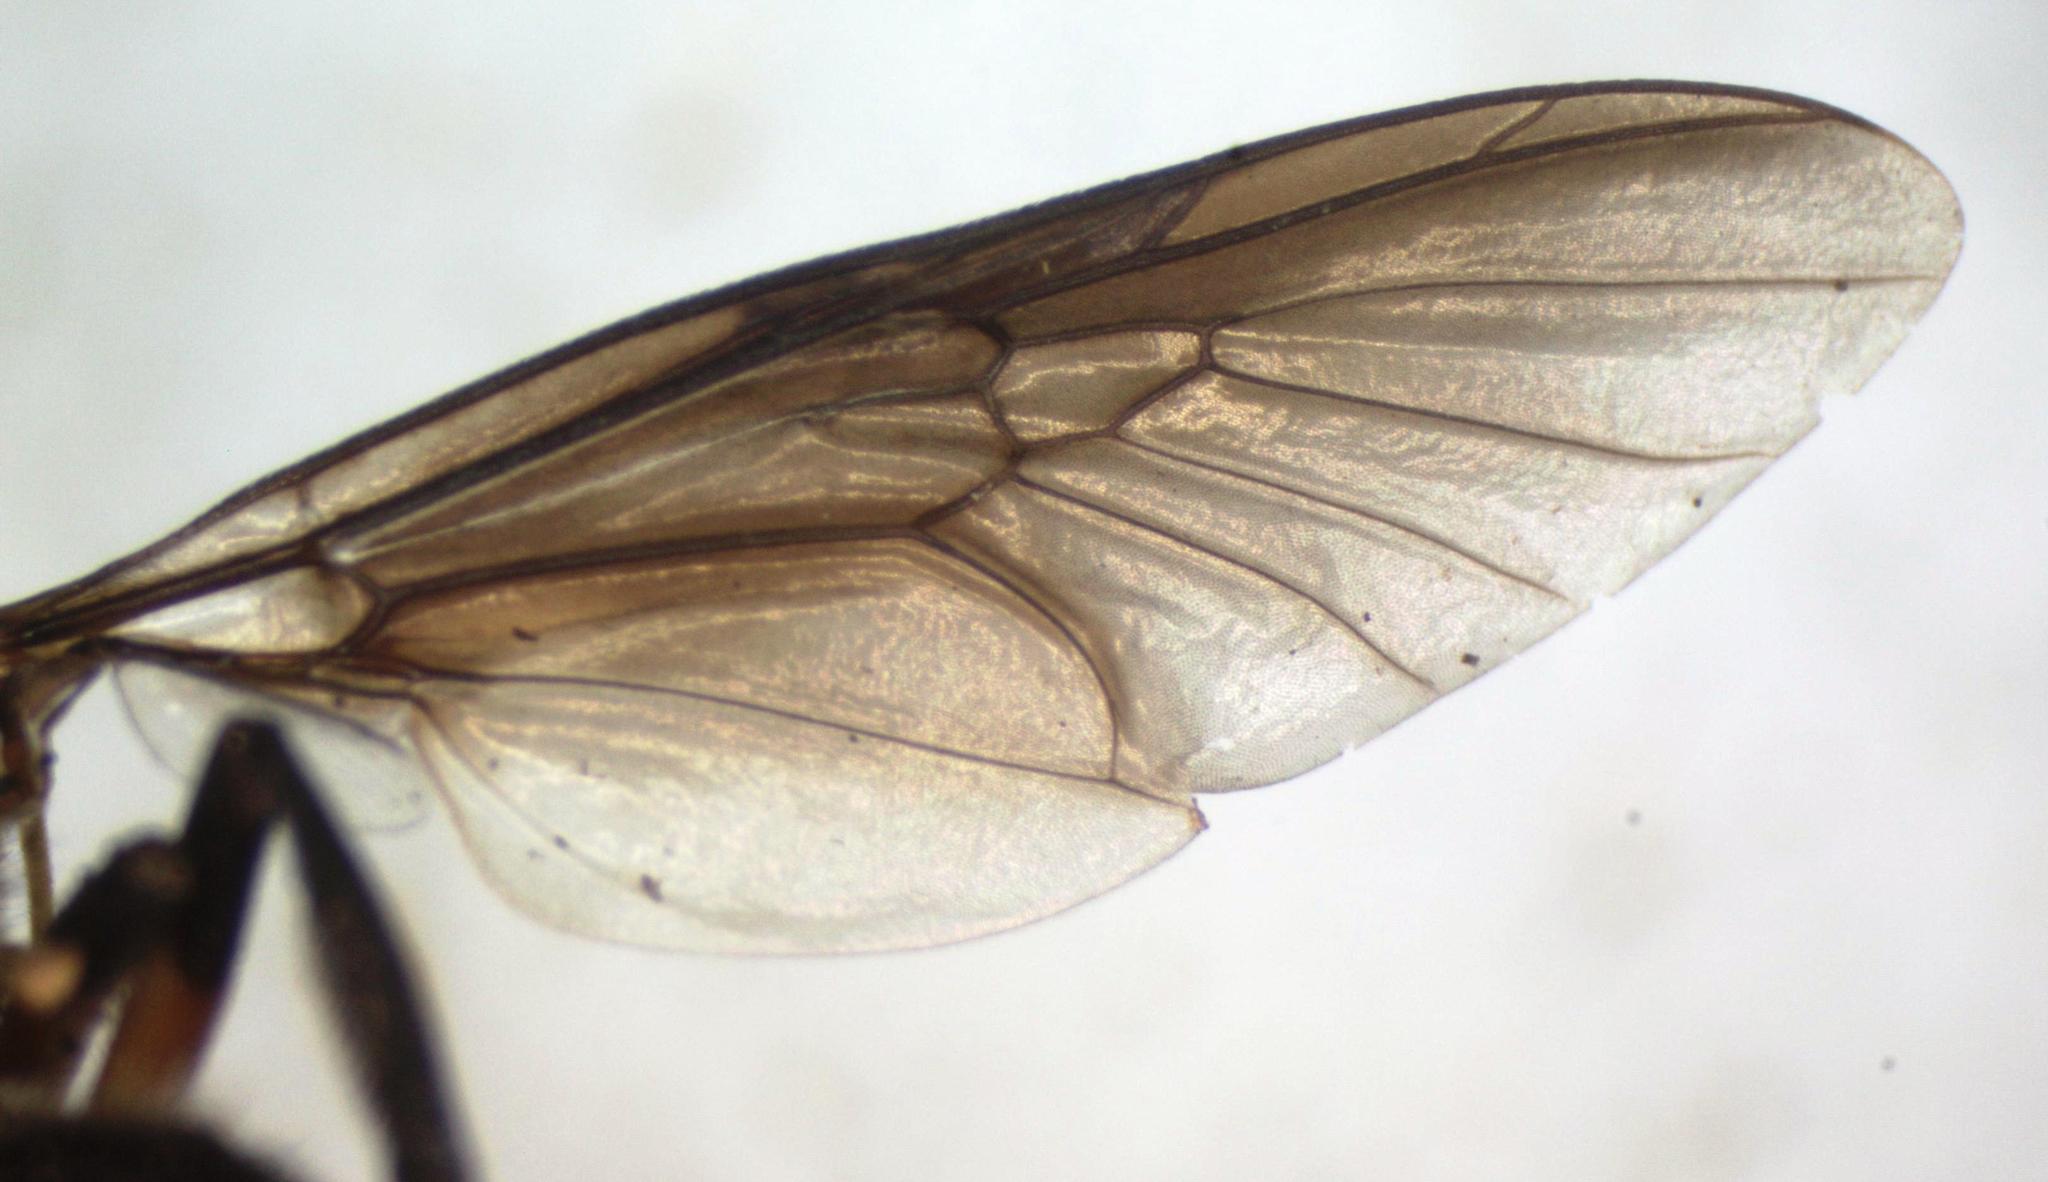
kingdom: Animalia
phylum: Arthropoda
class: Insecta
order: Diptera
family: Stratiomyidae
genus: Cyphomyia
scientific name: Cyphomyia varipes
